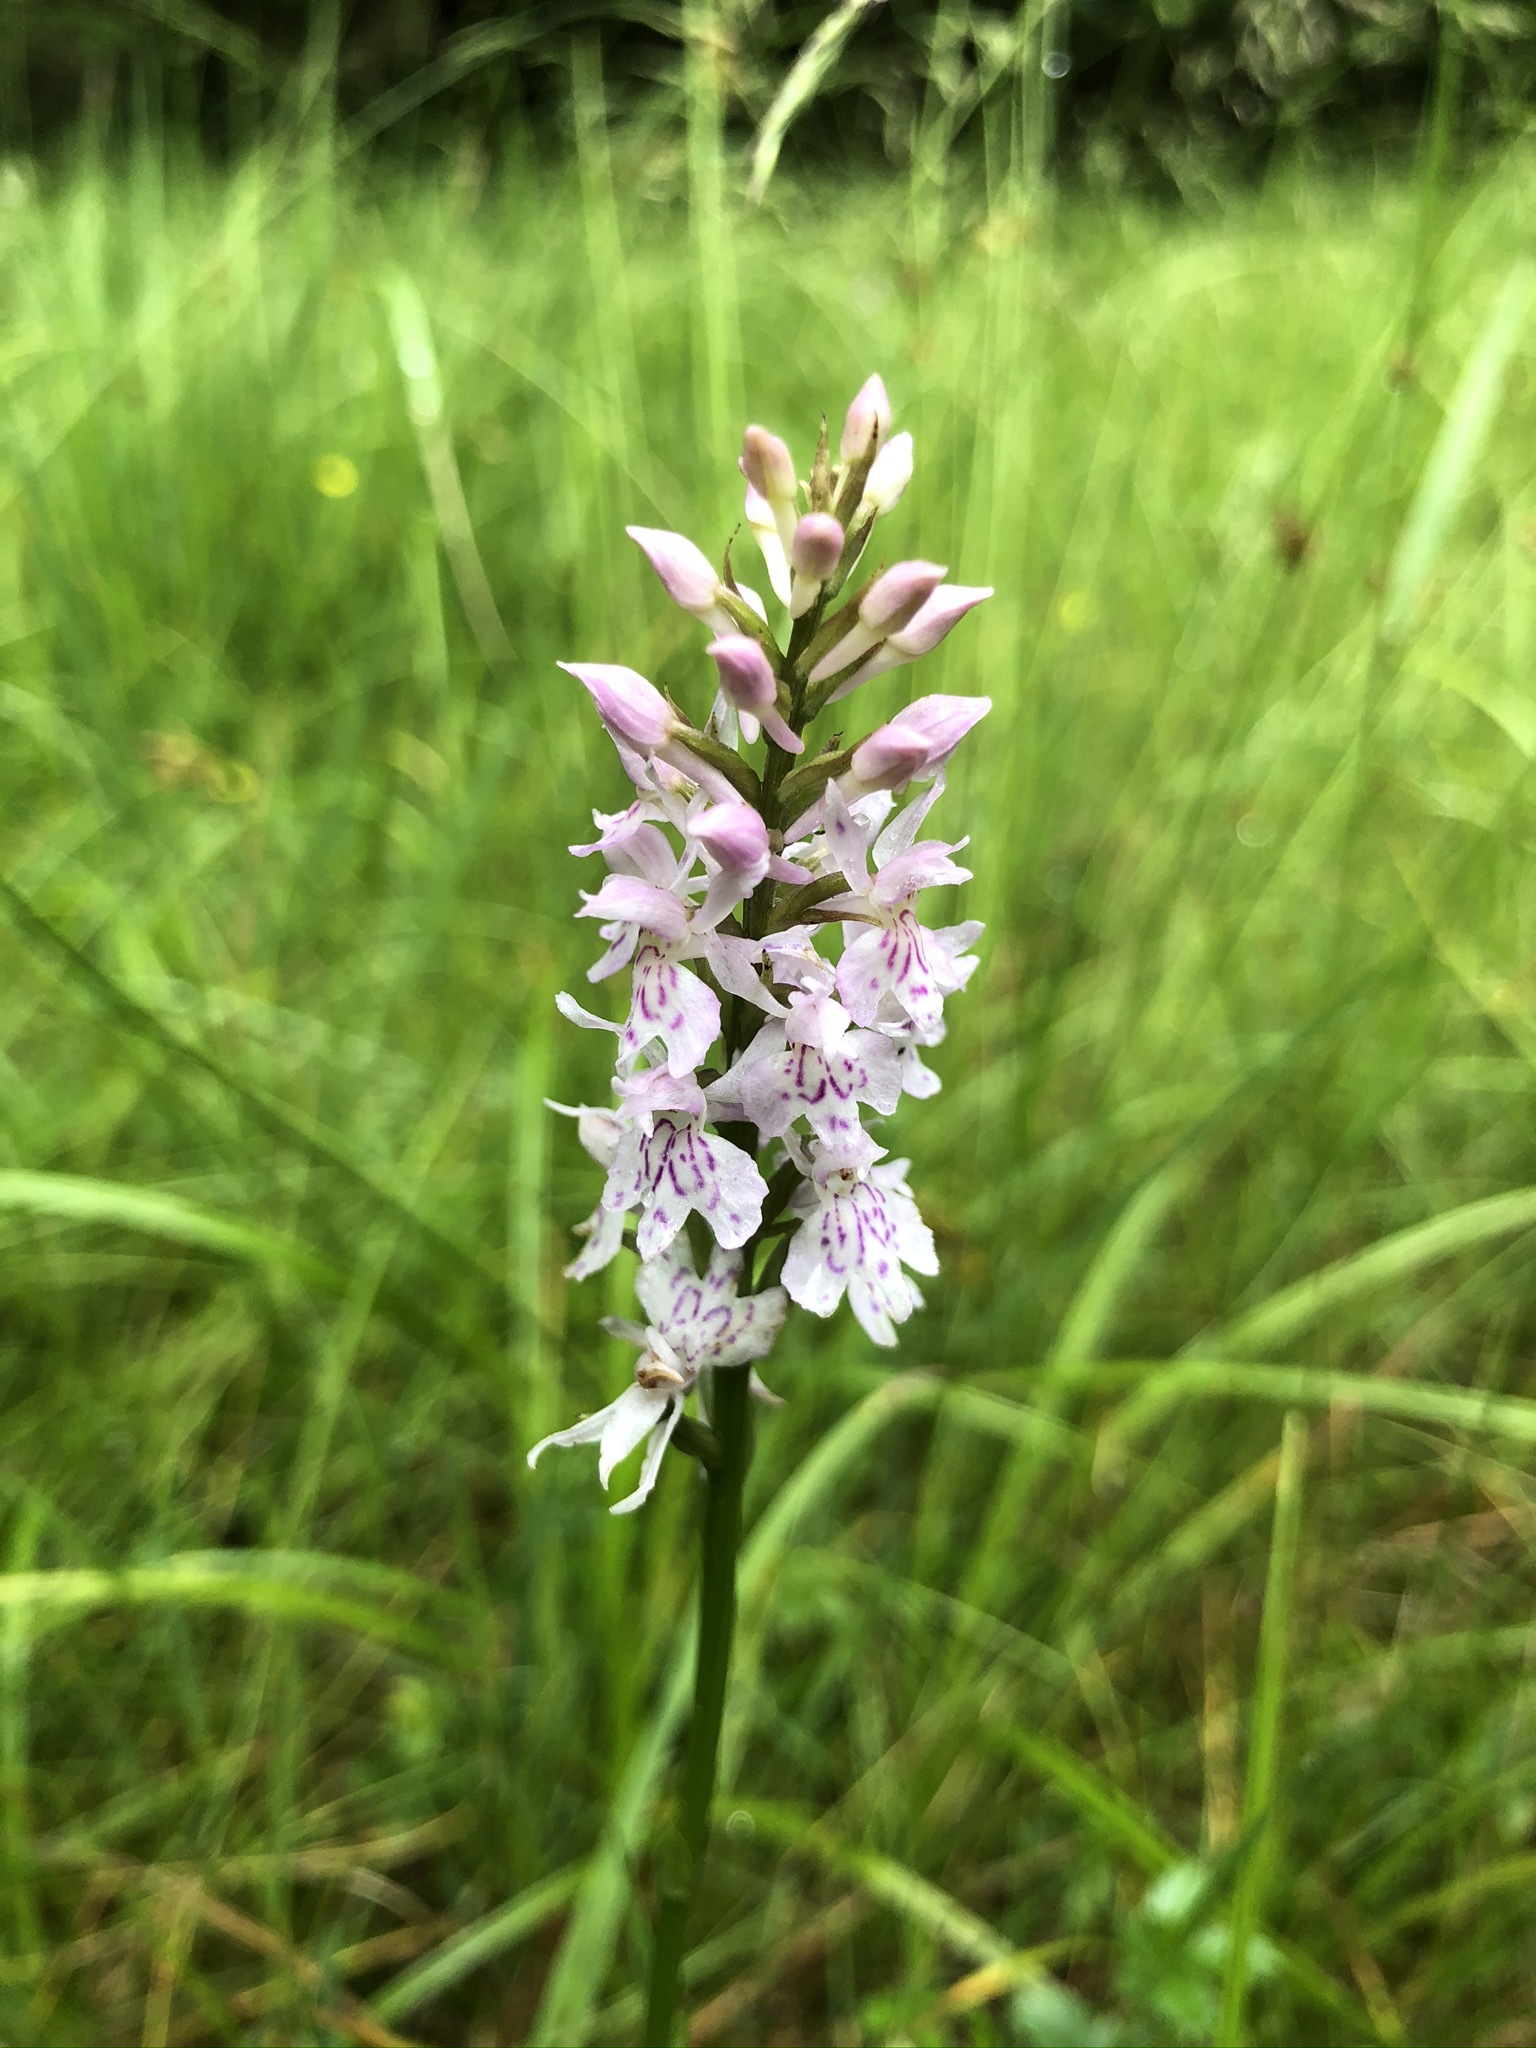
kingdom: Plantae
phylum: Tracheophyta
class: Liliopsida
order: Asparagales
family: Orchidaceae
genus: Dactylorhiza
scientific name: Dactylorhiza maculata
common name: Heath spotted-orchid
